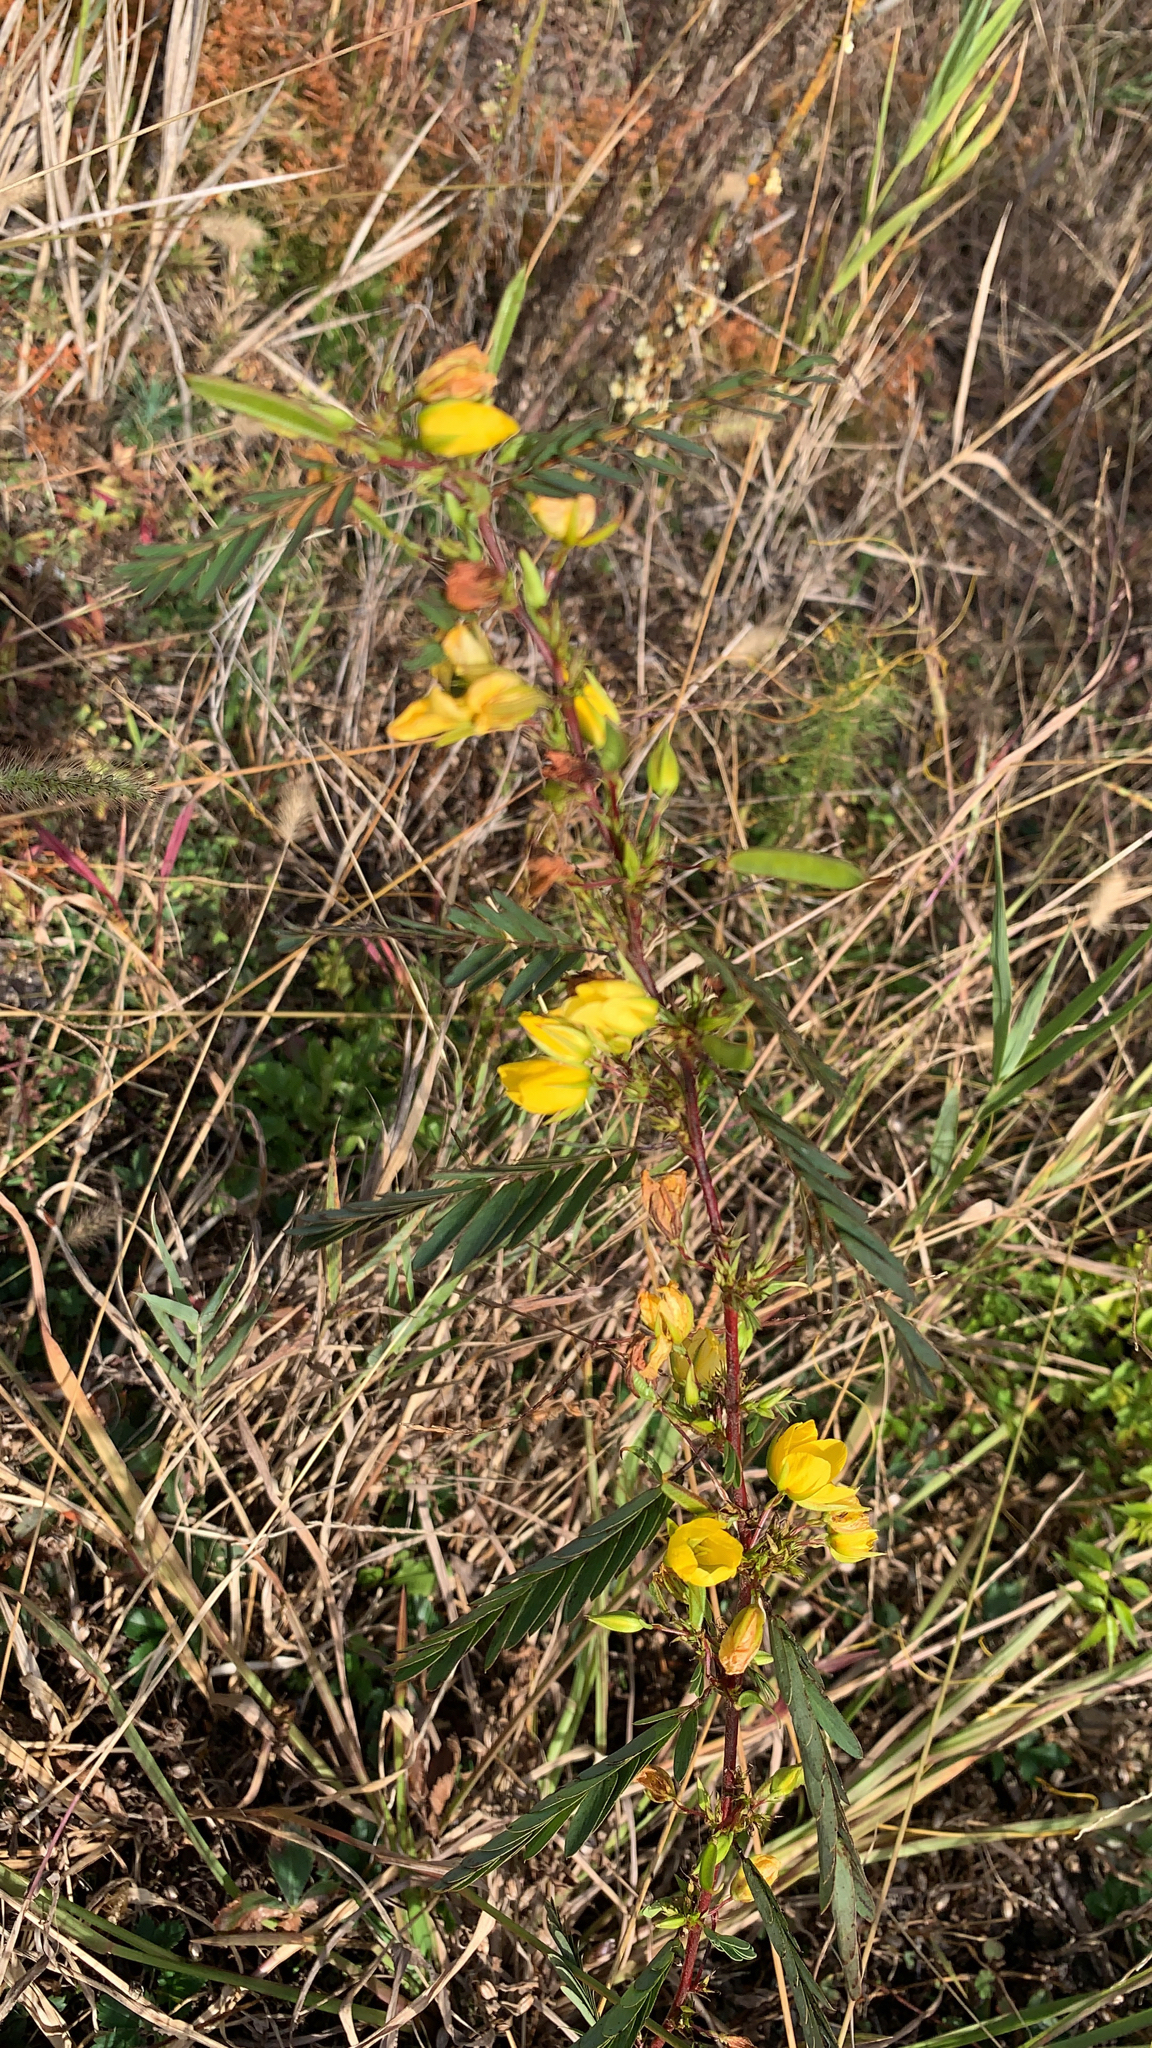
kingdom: Plantae
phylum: Tracheophyta
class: Magnoliopsida
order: Fabales
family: Fabaceae
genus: Chamaecrista
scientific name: Chamaecrista fasciculata
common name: Golden cassia
